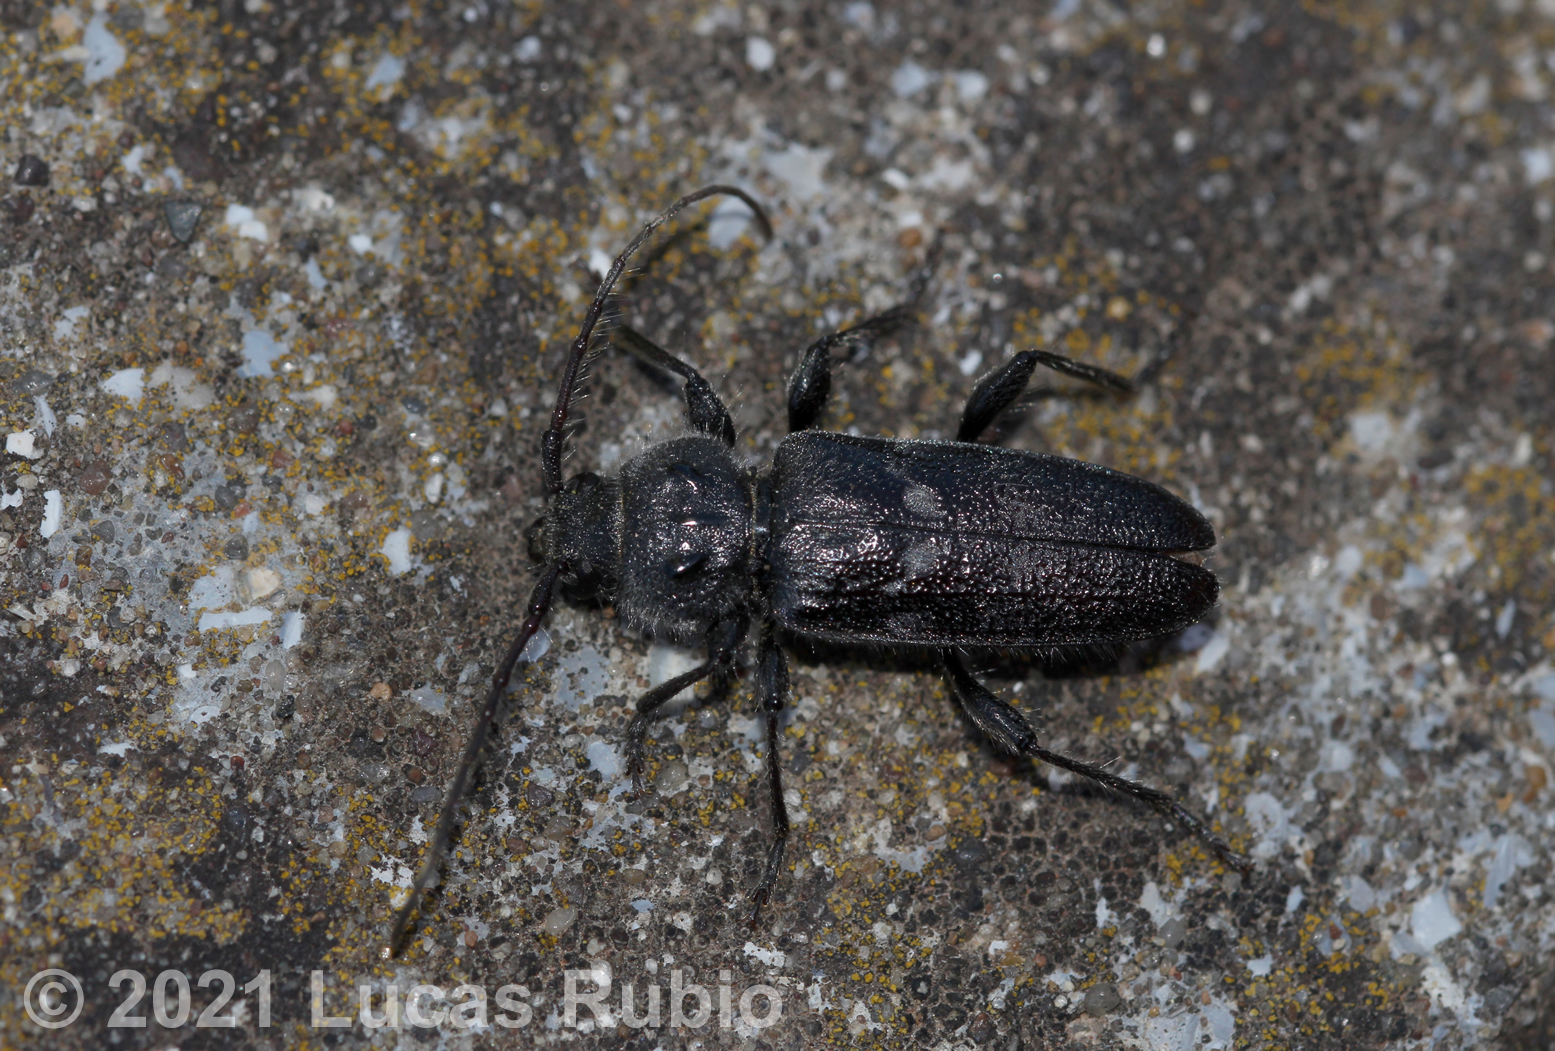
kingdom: Animalia
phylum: Arthropoda
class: Insecta
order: Coleoptera
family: Cerambycidae
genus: Hylotrupes
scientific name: Hylotrupes bajulus
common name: Old house borer
